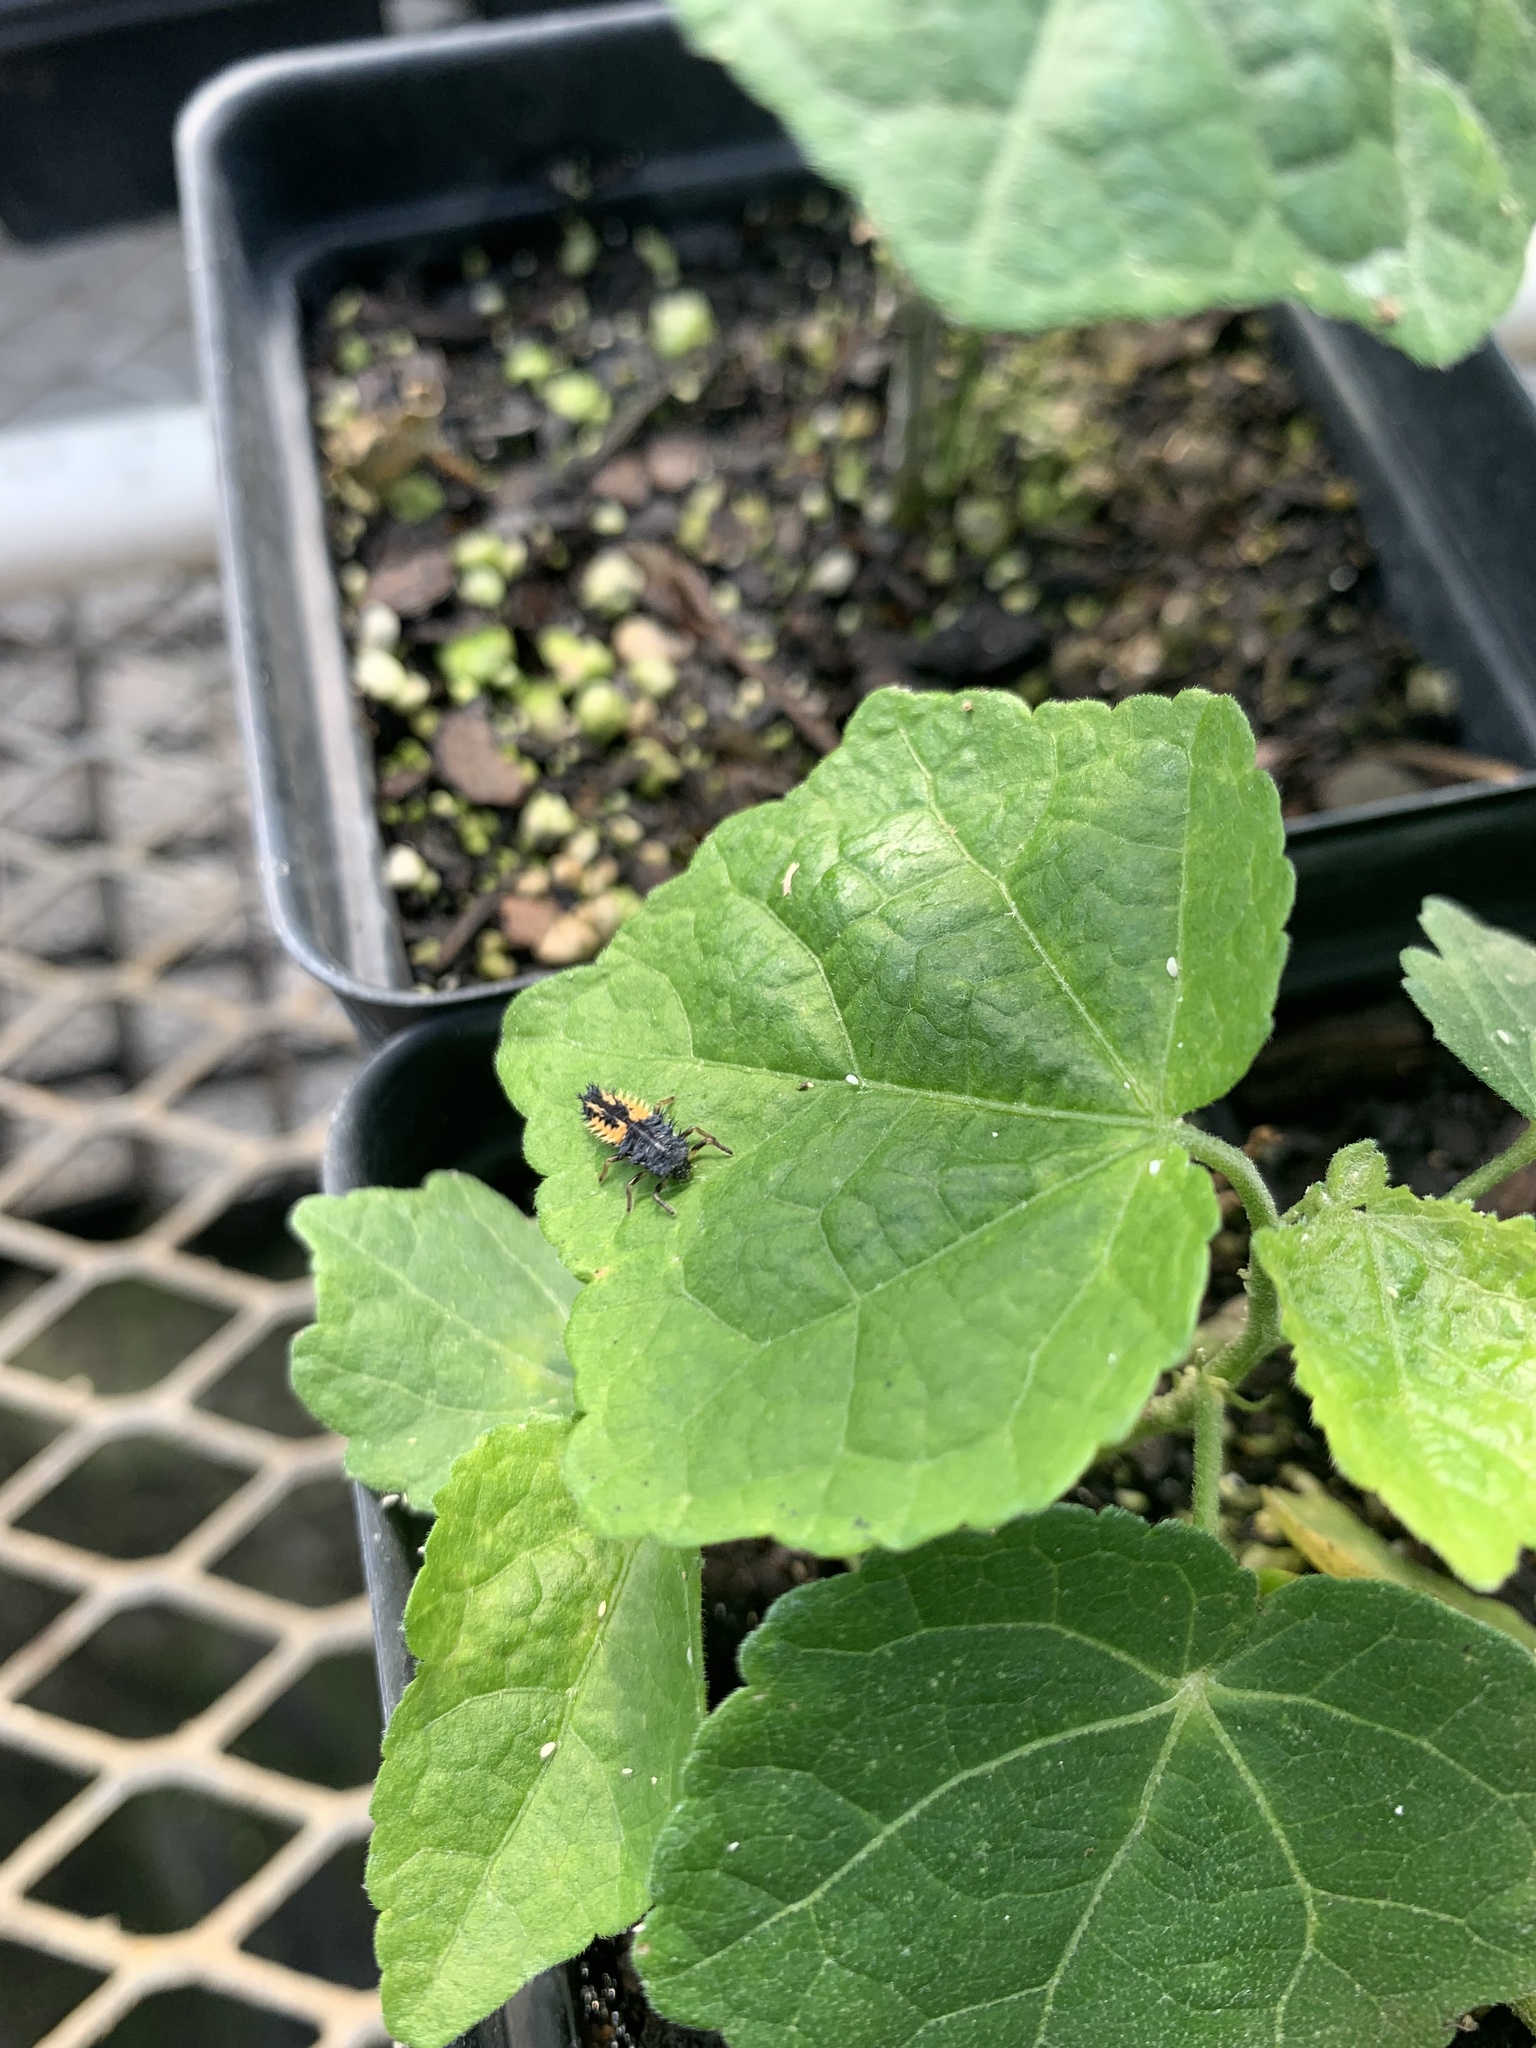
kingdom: Animalia
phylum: Arthropoda
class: Insecta
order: Coleoptera
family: Coccinellidae
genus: Harmonia
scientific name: Harmonia axyridis
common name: Harlequin ladybird
